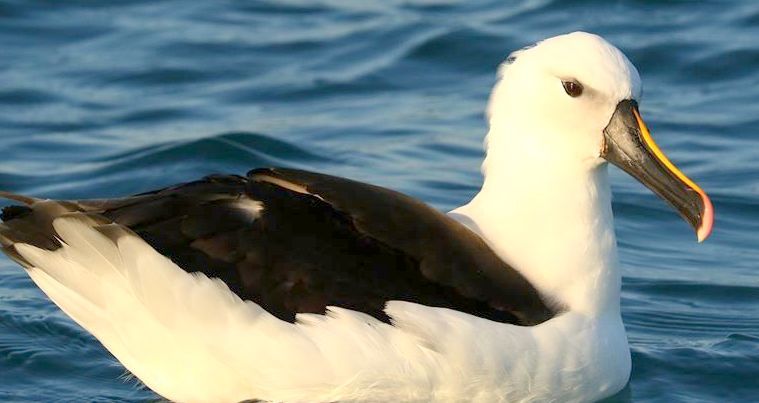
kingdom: Animalia
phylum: Chordata
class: Aves
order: Procellariiformes
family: Diomedeidae
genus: Thalassarche
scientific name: Thalassarche carteri
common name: Indian yellow-nosed albatross
